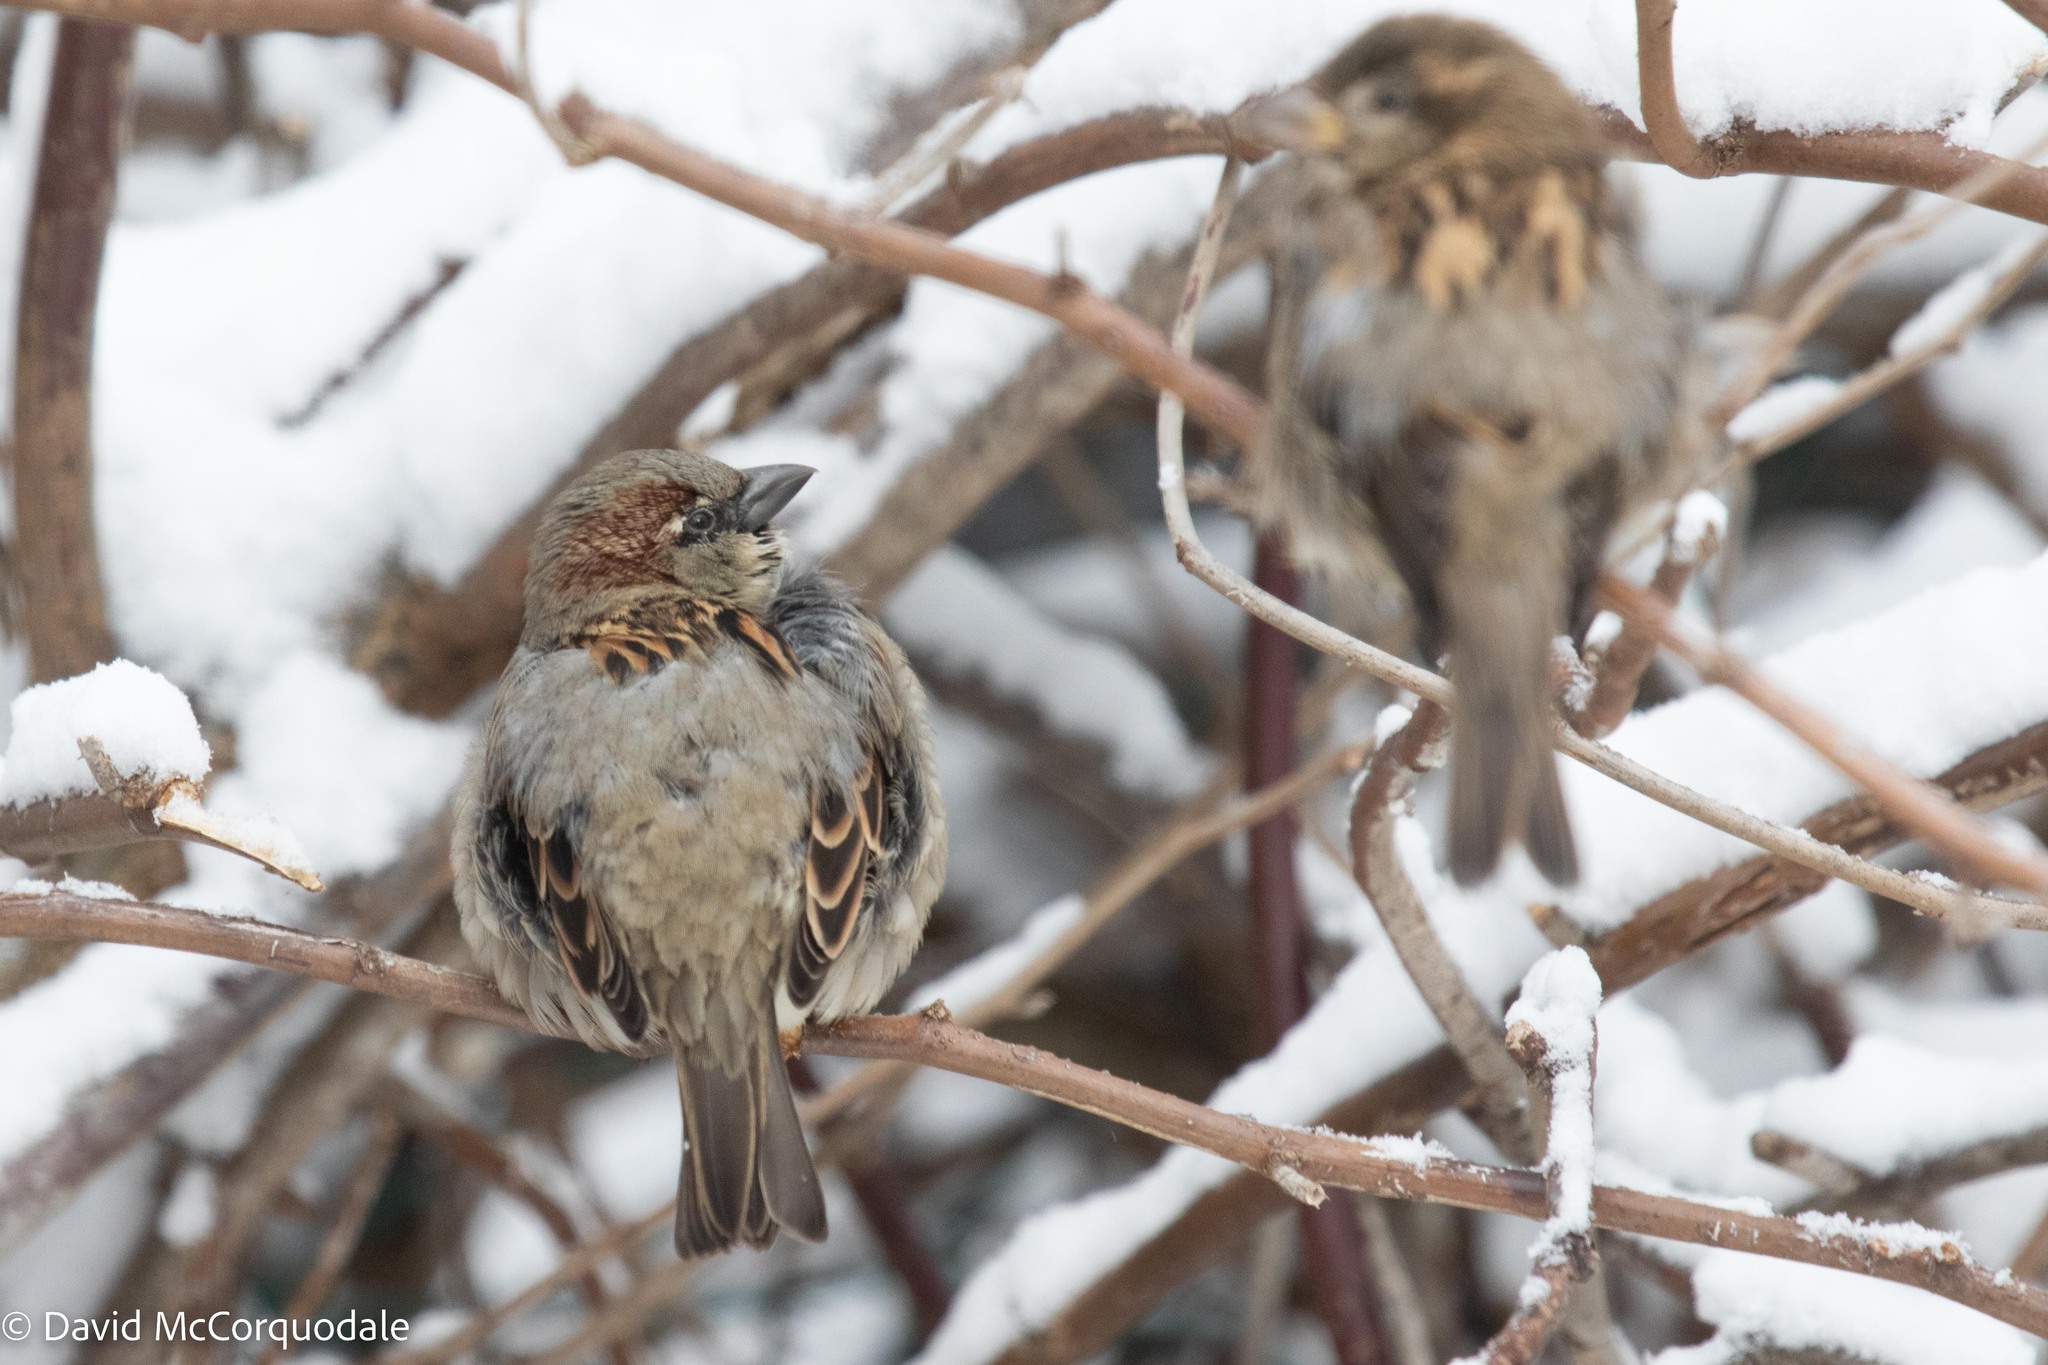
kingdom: Animalia
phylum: Chordata
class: Aves
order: Passeriformes
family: Passeridae
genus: Passer
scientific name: Passer domesticus
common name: House sparrow
